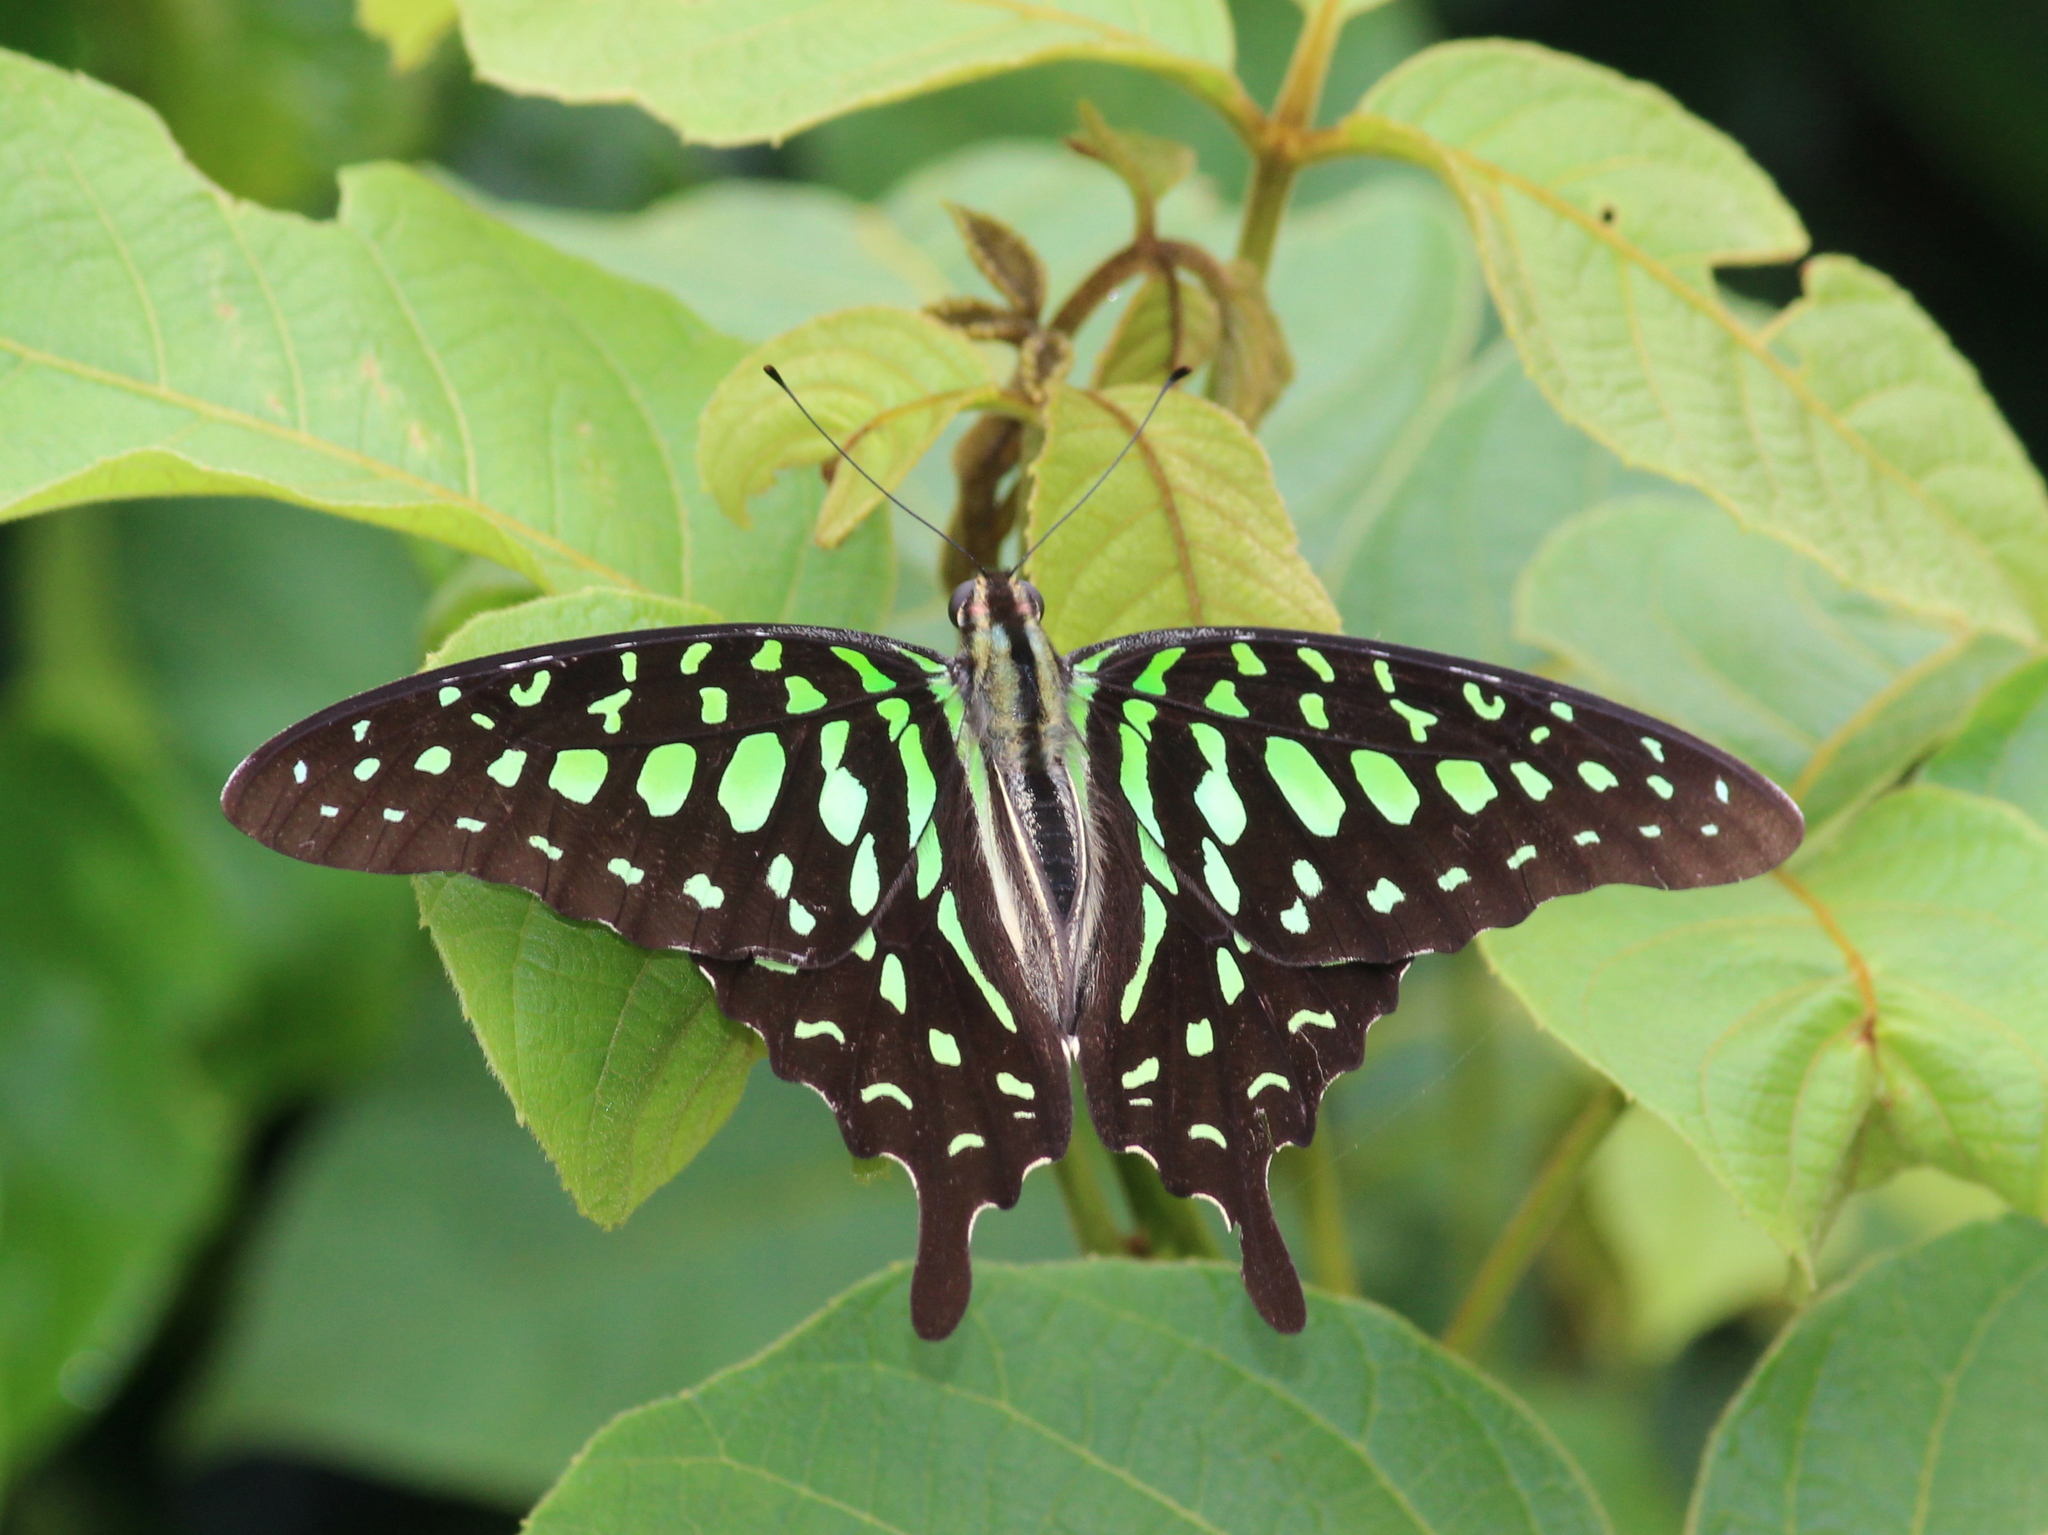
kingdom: Animalia
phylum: Arthropoda
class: Insecta
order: Lepidoptera
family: Papilionidae
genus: Graphium
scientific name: Graphium agamemnon
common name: Tailed jay
